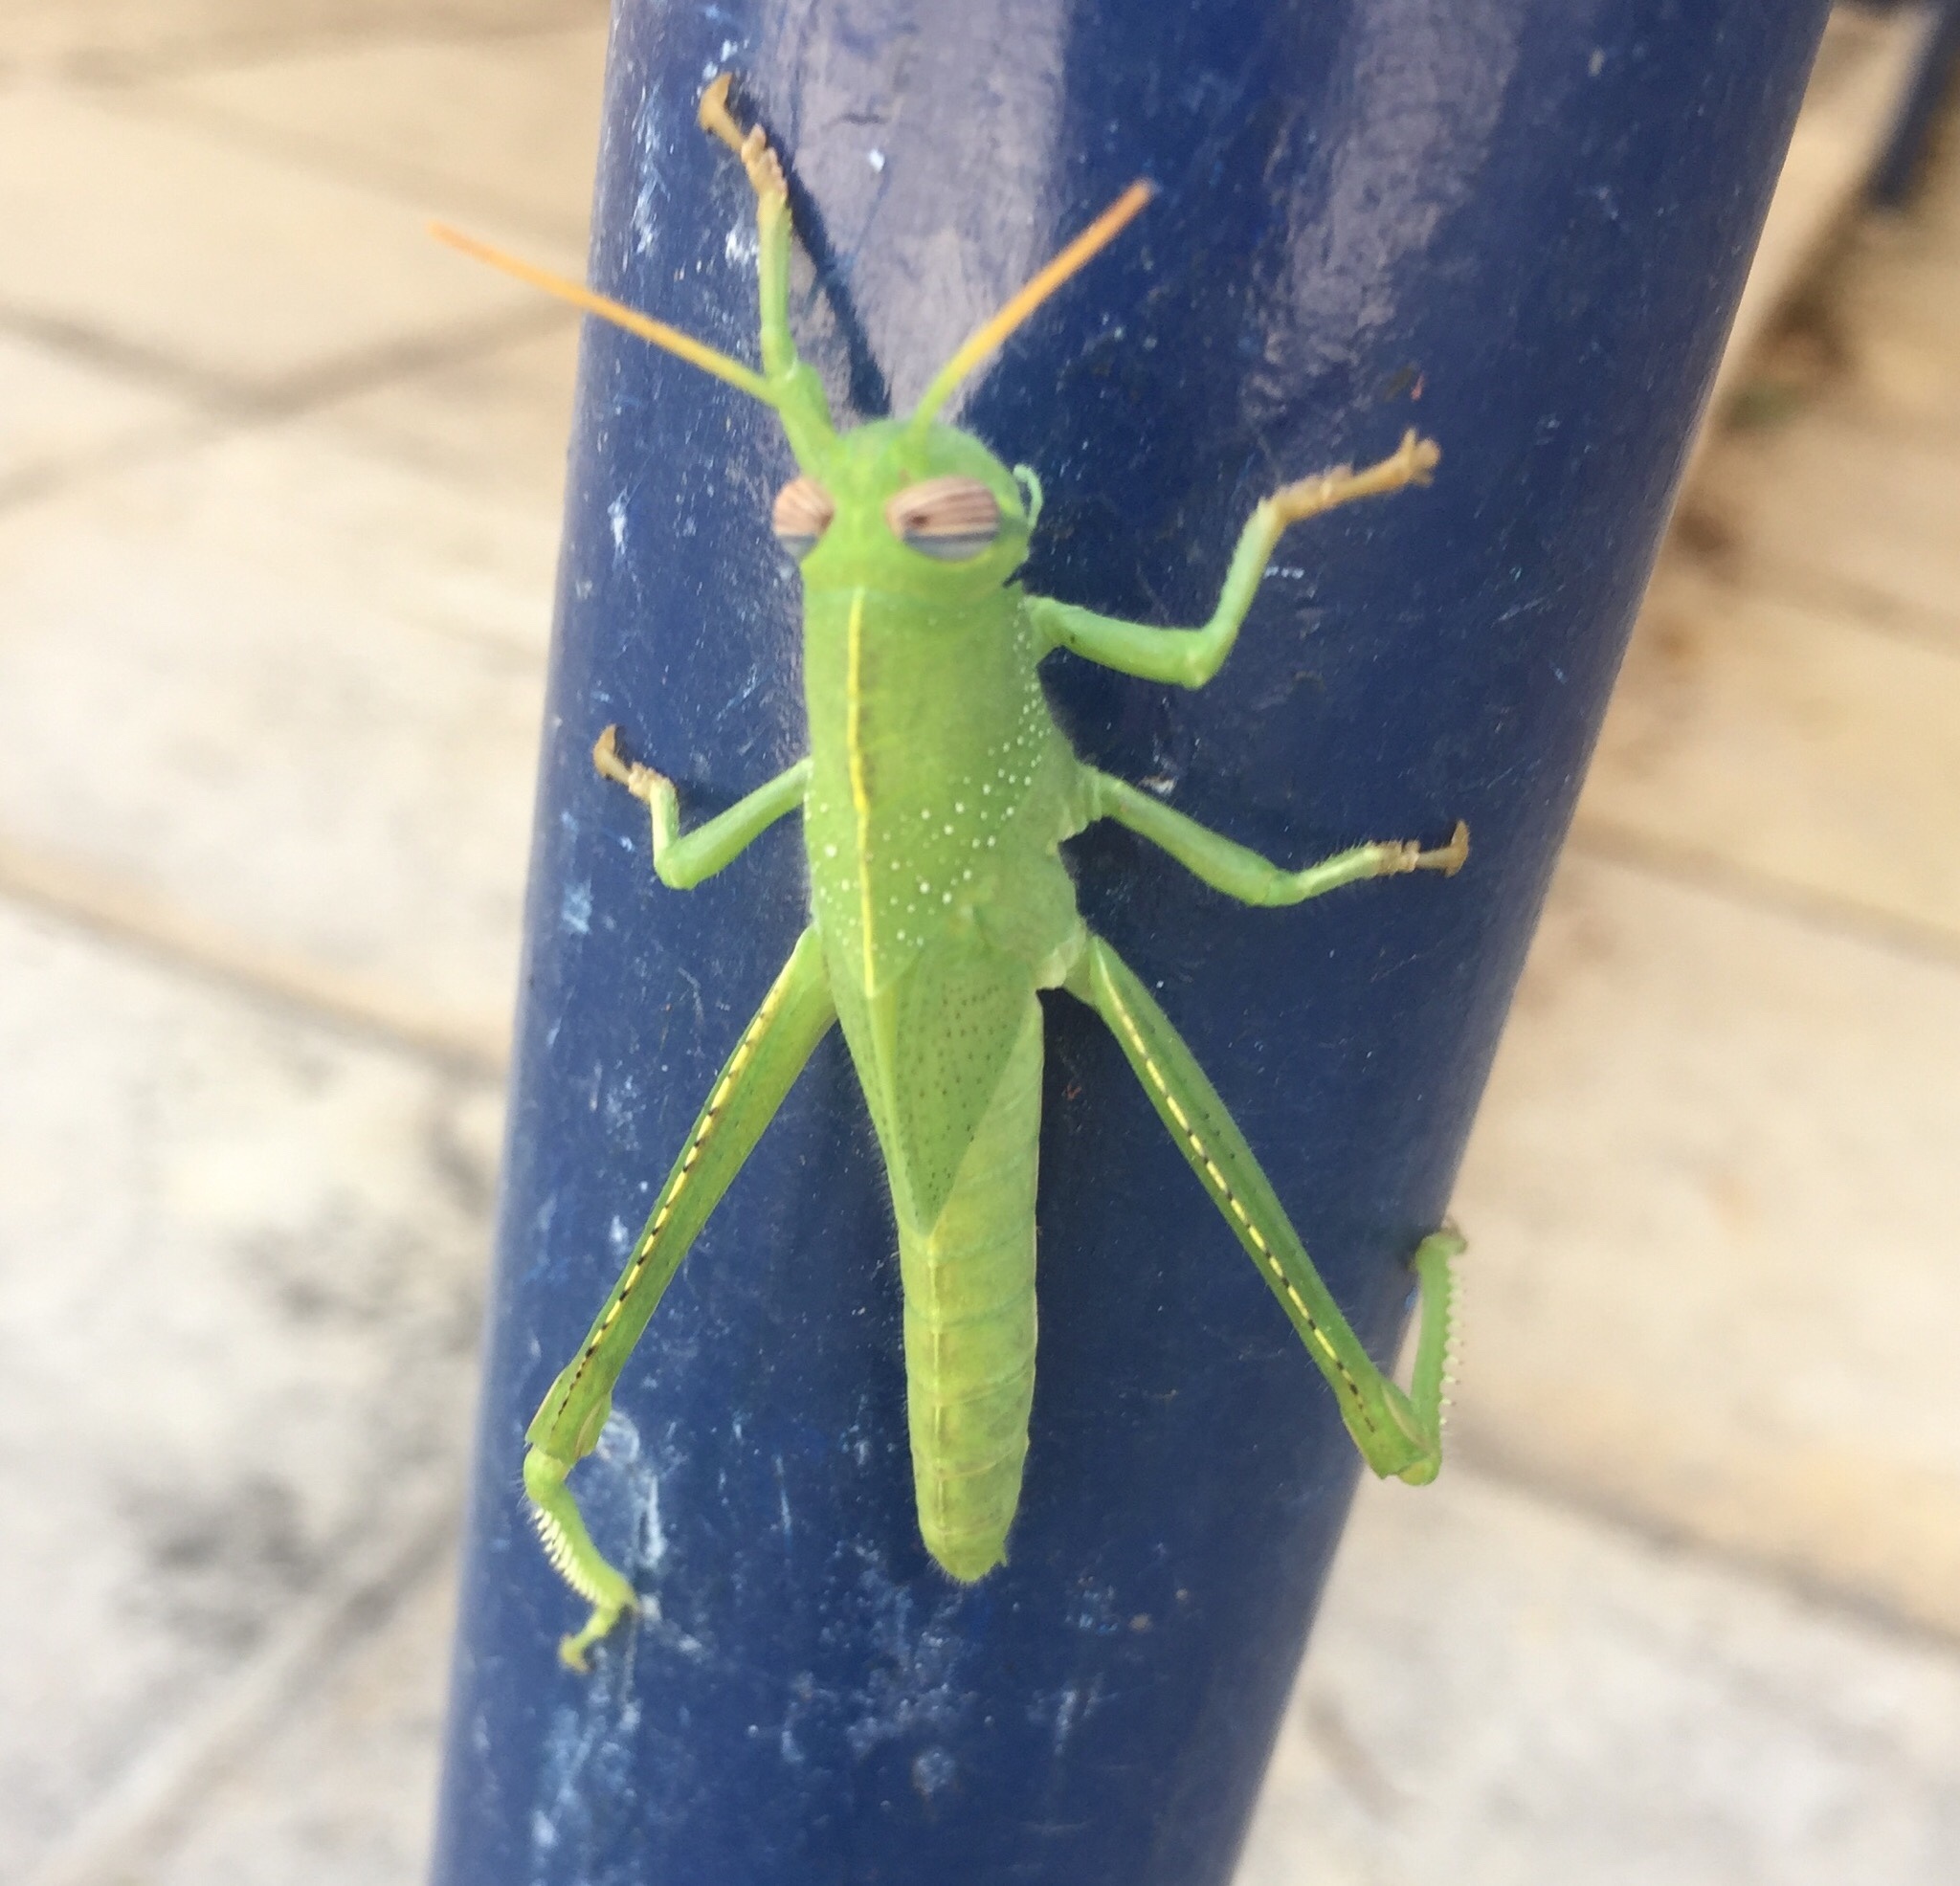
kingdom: Animalia
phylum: Arthropoda
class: Insecta
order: Orthoptera
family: Acrididae
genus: Anacridium
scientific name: Anacridium aegyptium
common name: Egyptian grasshopper
